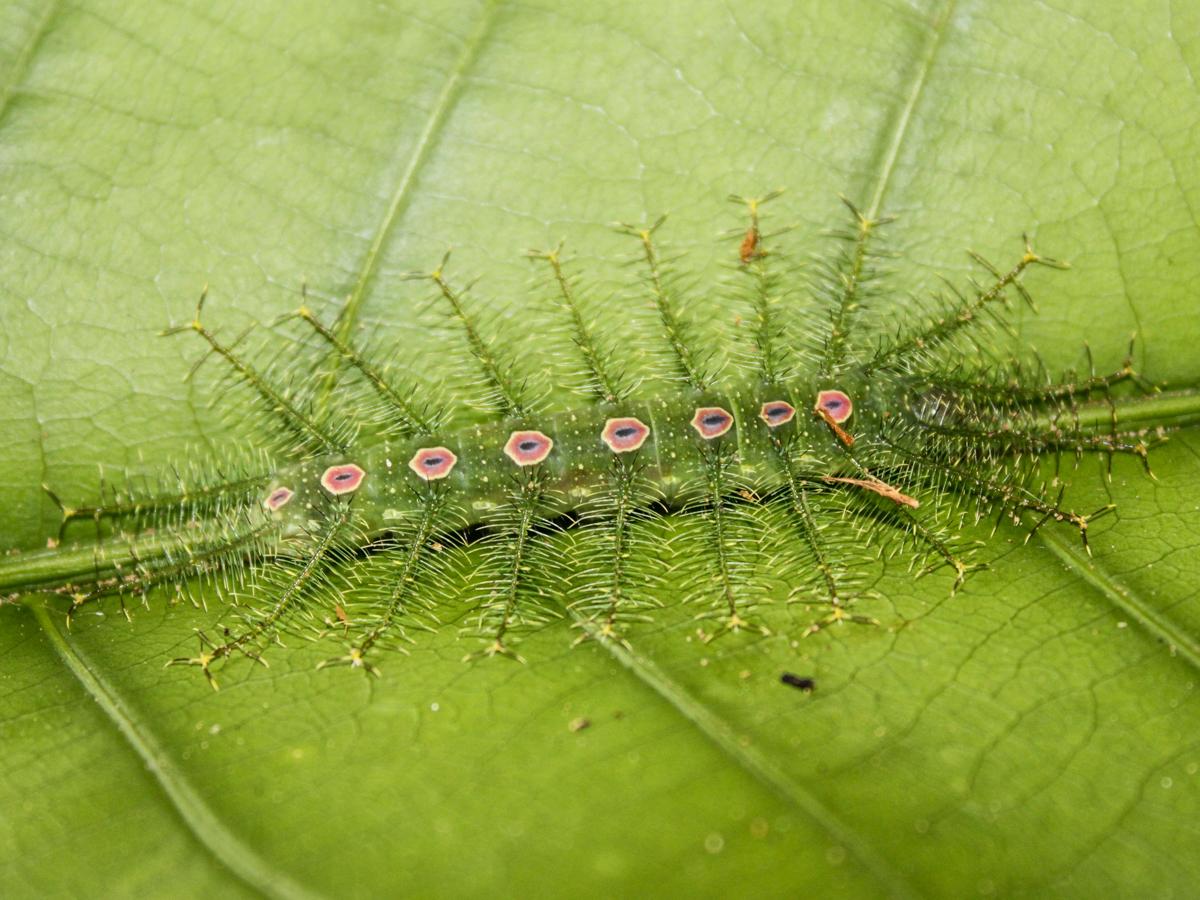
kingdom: Animalia
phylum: Arthropoda
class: Insecta
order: Lepidoptera
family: Nymphalidae
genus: Tanaecia
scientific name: Tanaecia lepidea
